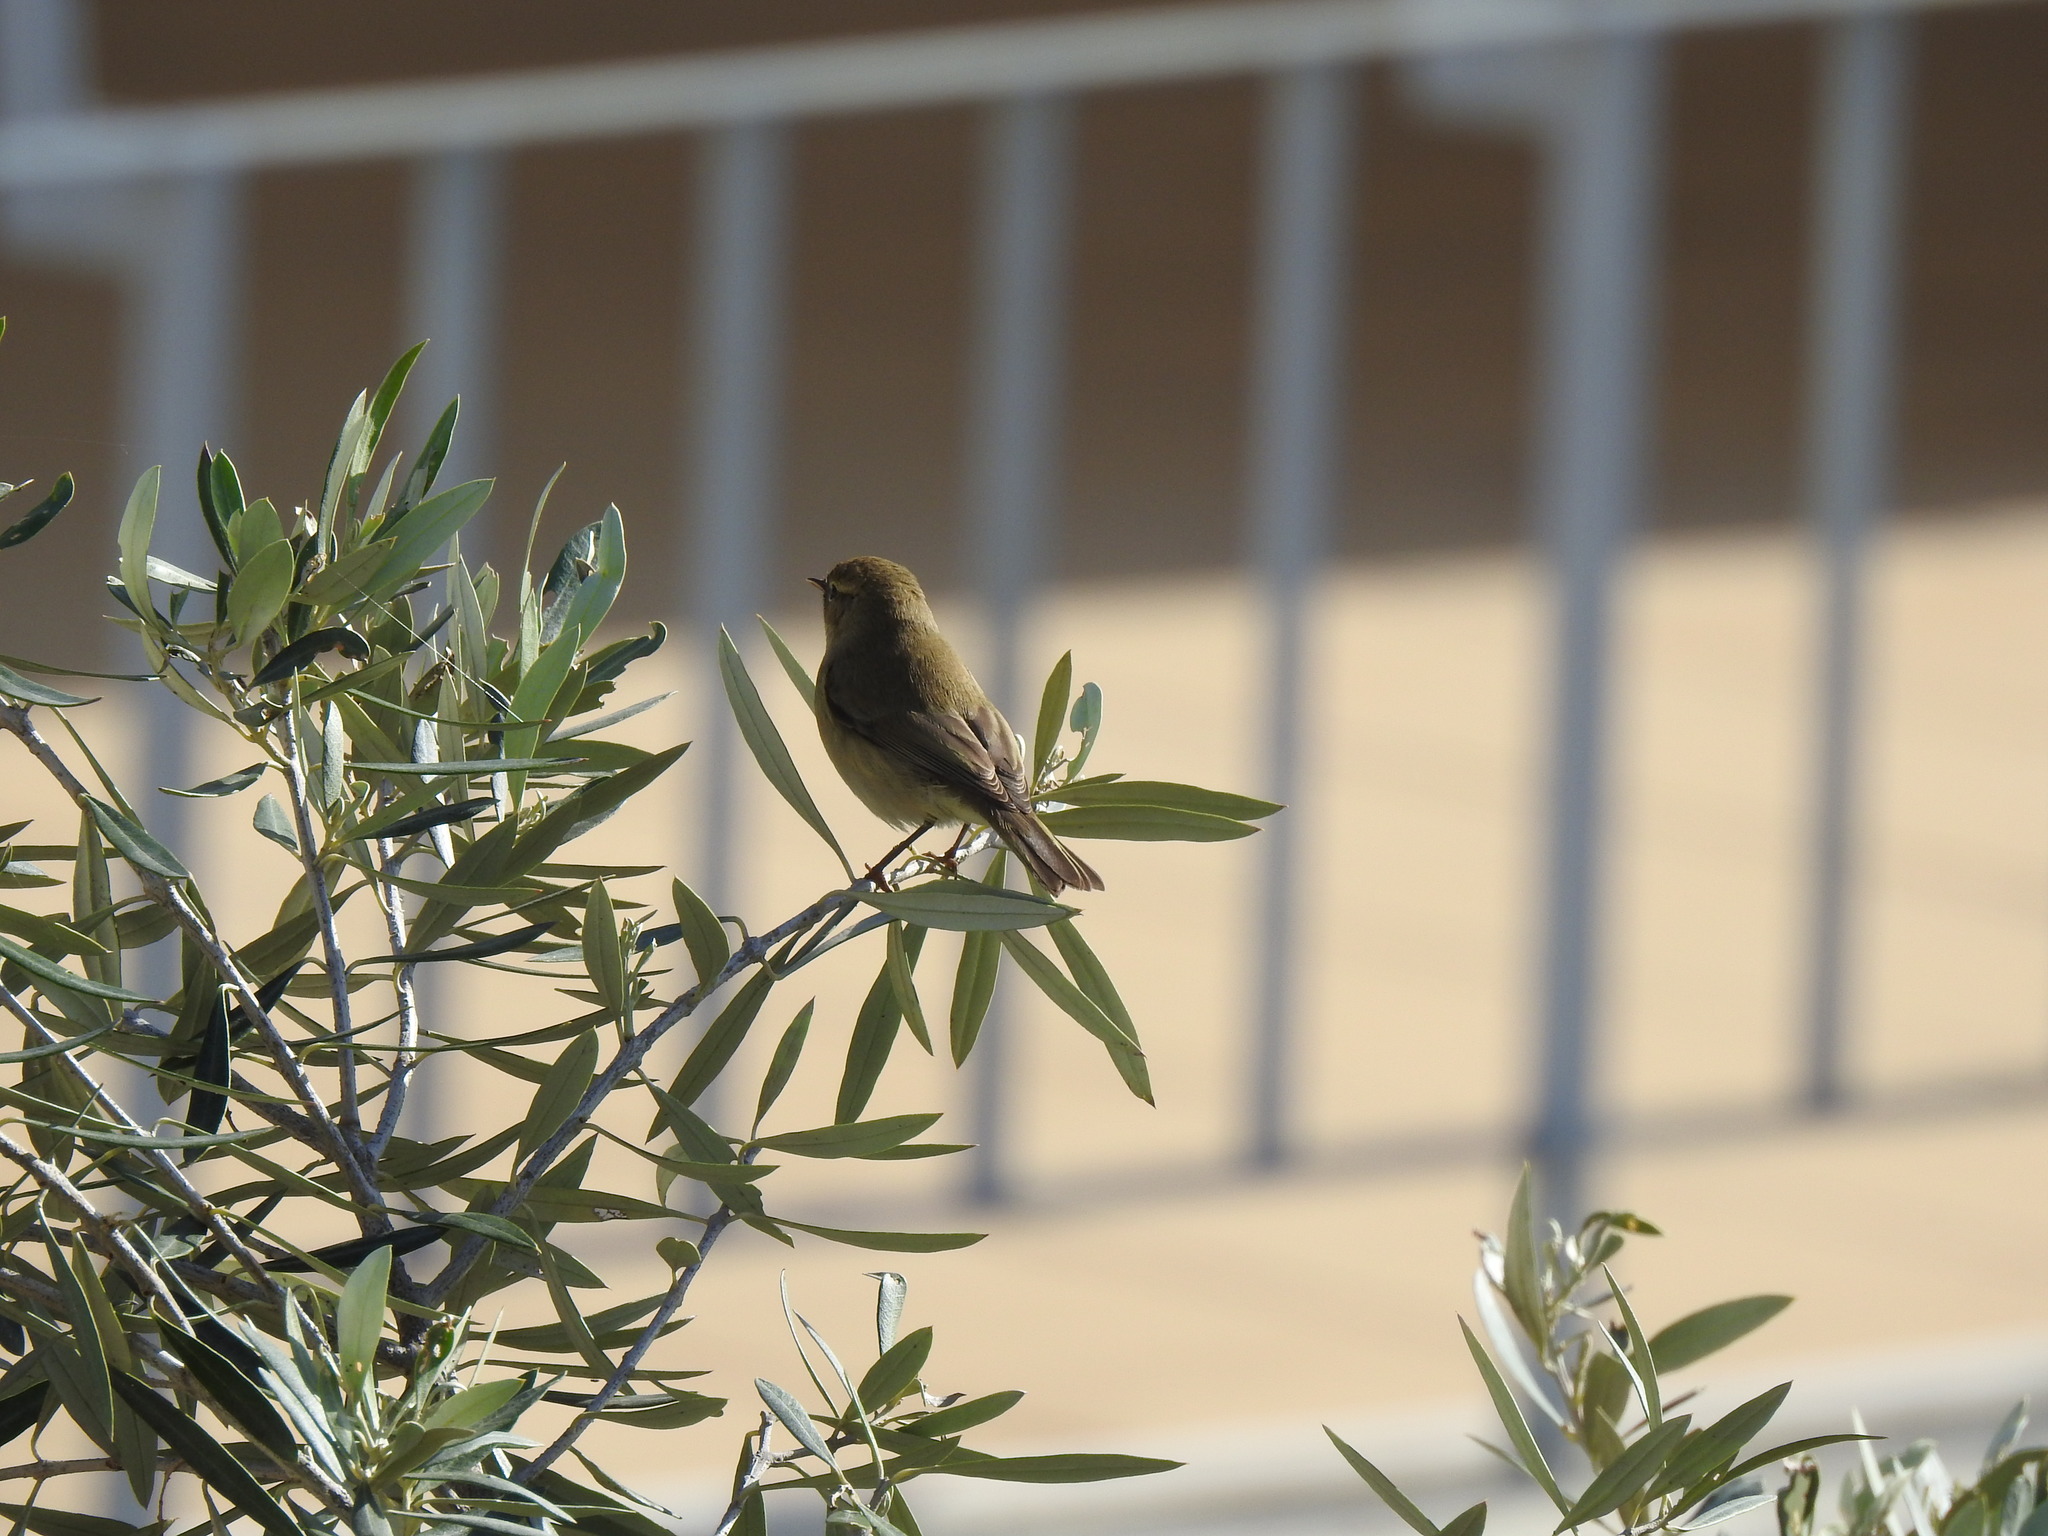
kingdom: Animalia
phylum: Chordata
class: Aves
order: Passeriformes
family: Phylloscopidae
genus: Phylloscopus
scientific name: Phylloscopus collybita
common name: Common chiffchaff
